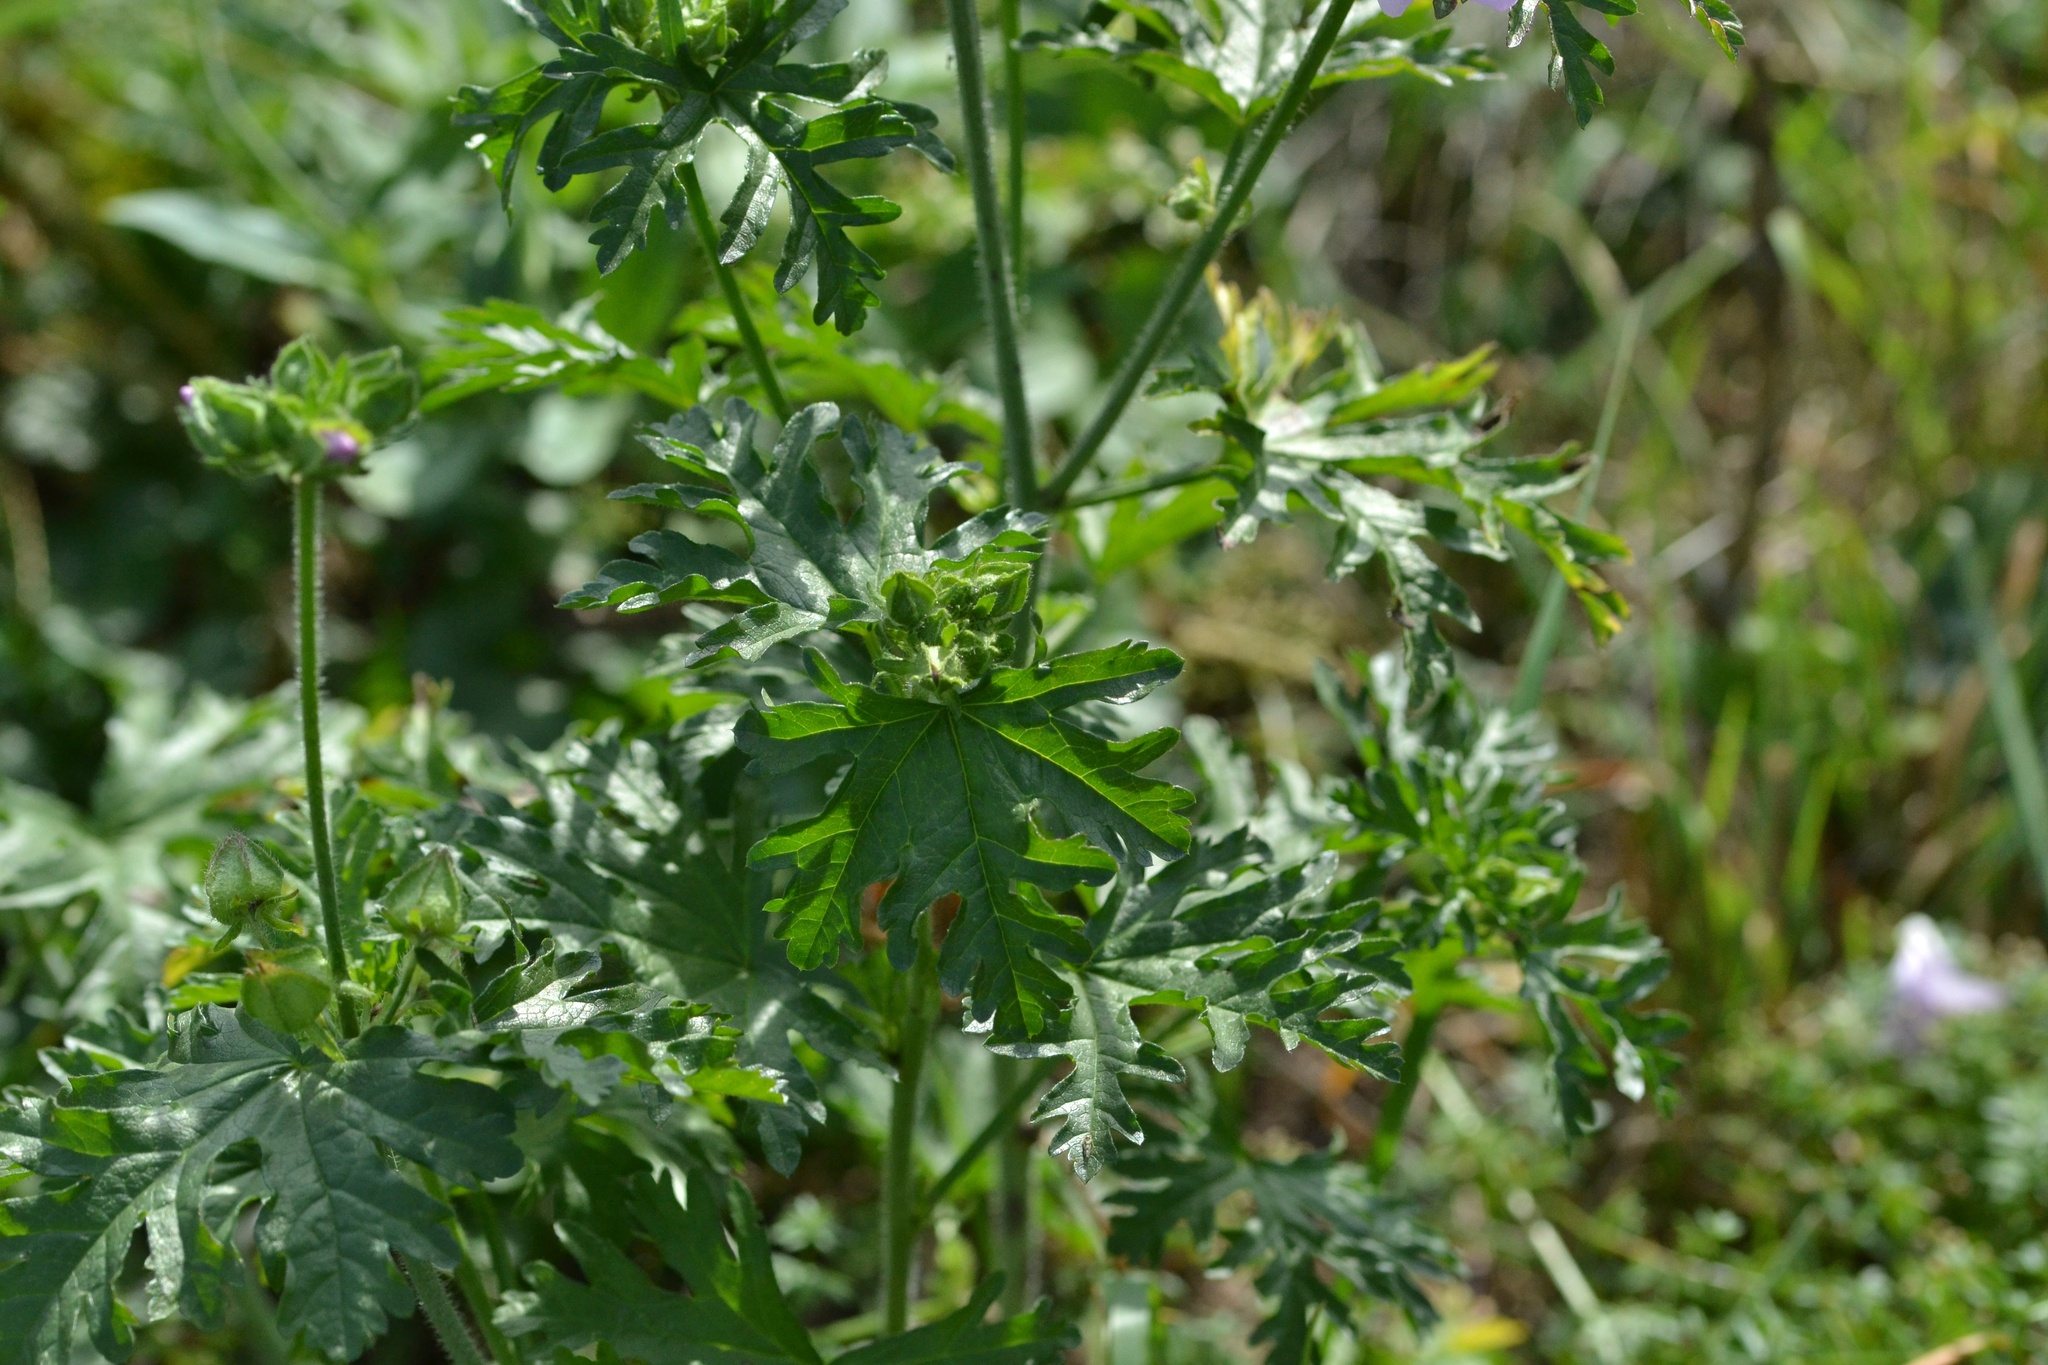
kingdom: Plantae
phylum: Tracheophyta
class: Magnoliopsida
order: Malvales
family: Malvaceae
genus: Malva
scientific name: Malva moschata
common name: Musk mallow
